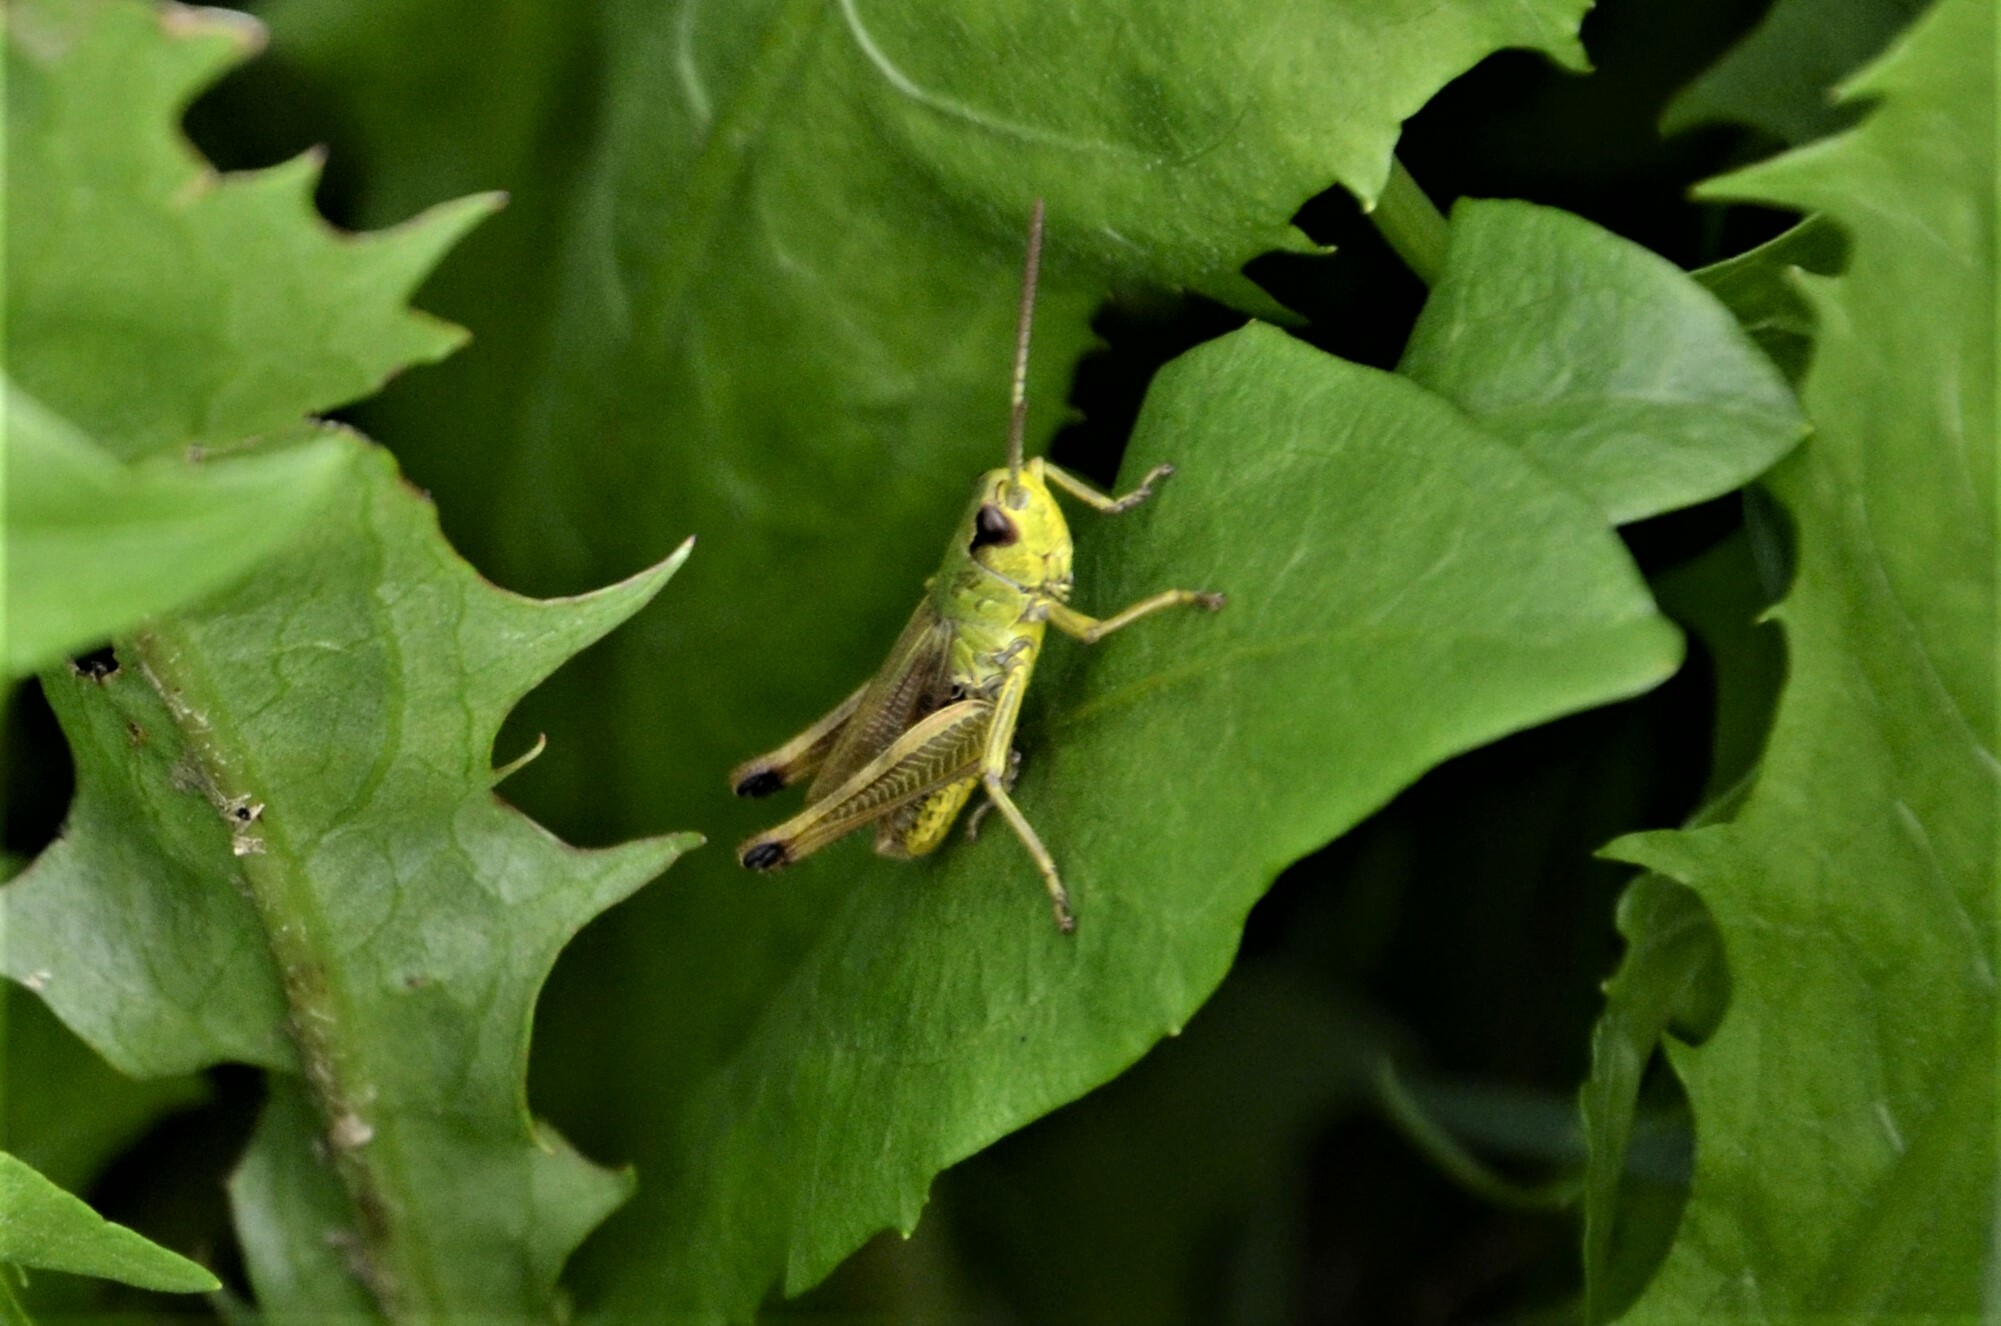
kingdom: Animalia
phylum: Arthropoda
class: Insecta
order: Orthoptera
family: Acrididae
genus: Pseudochorthippus
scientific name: Pseudochorthippus parallelus
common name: Meadow grasshopper
